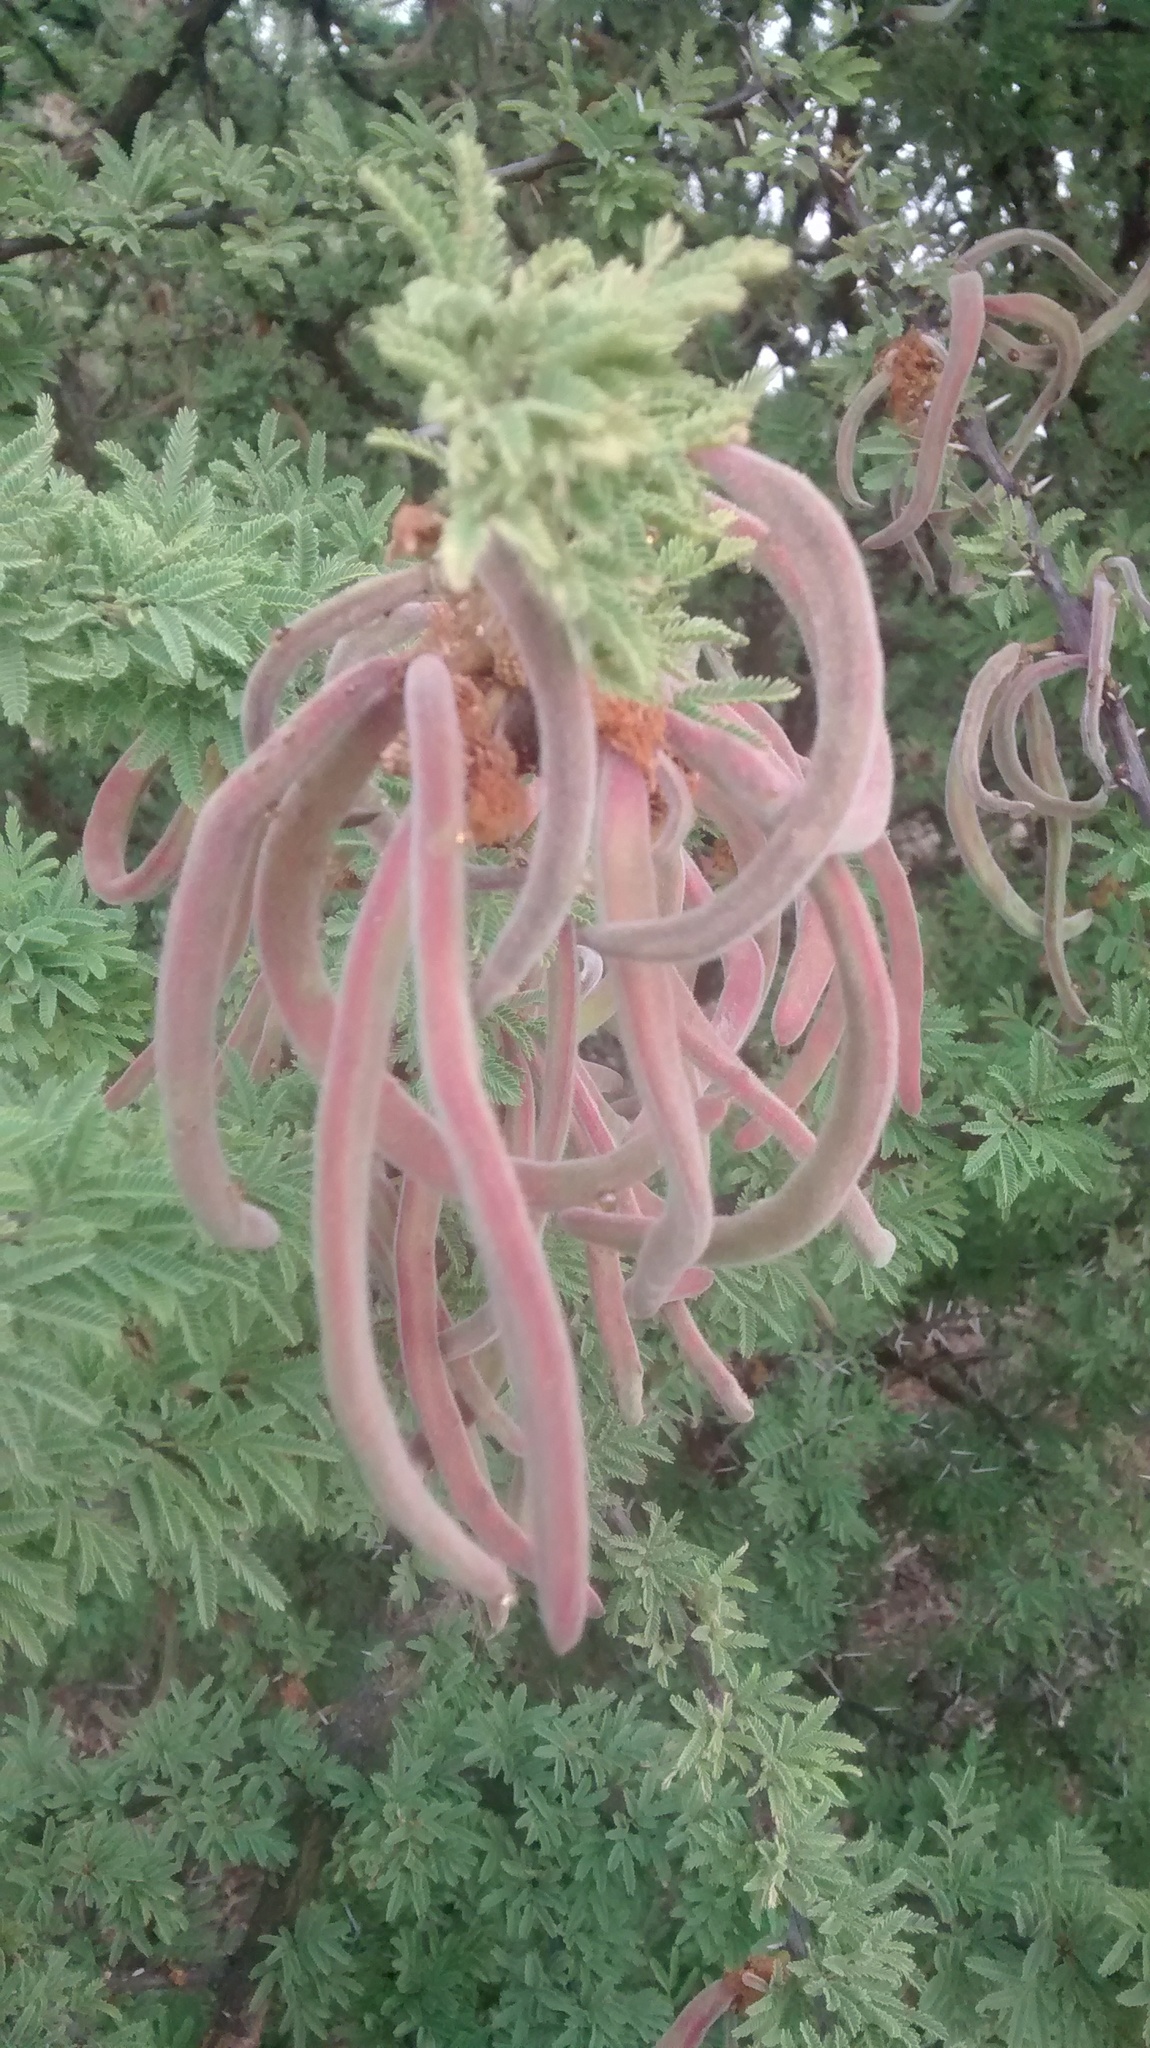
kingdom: Plantae
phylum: Tracheophyta
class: Magnoliopsida
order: Fabales
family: Fabaceae
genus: Vachellia
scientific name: Vachellia schaffneri
